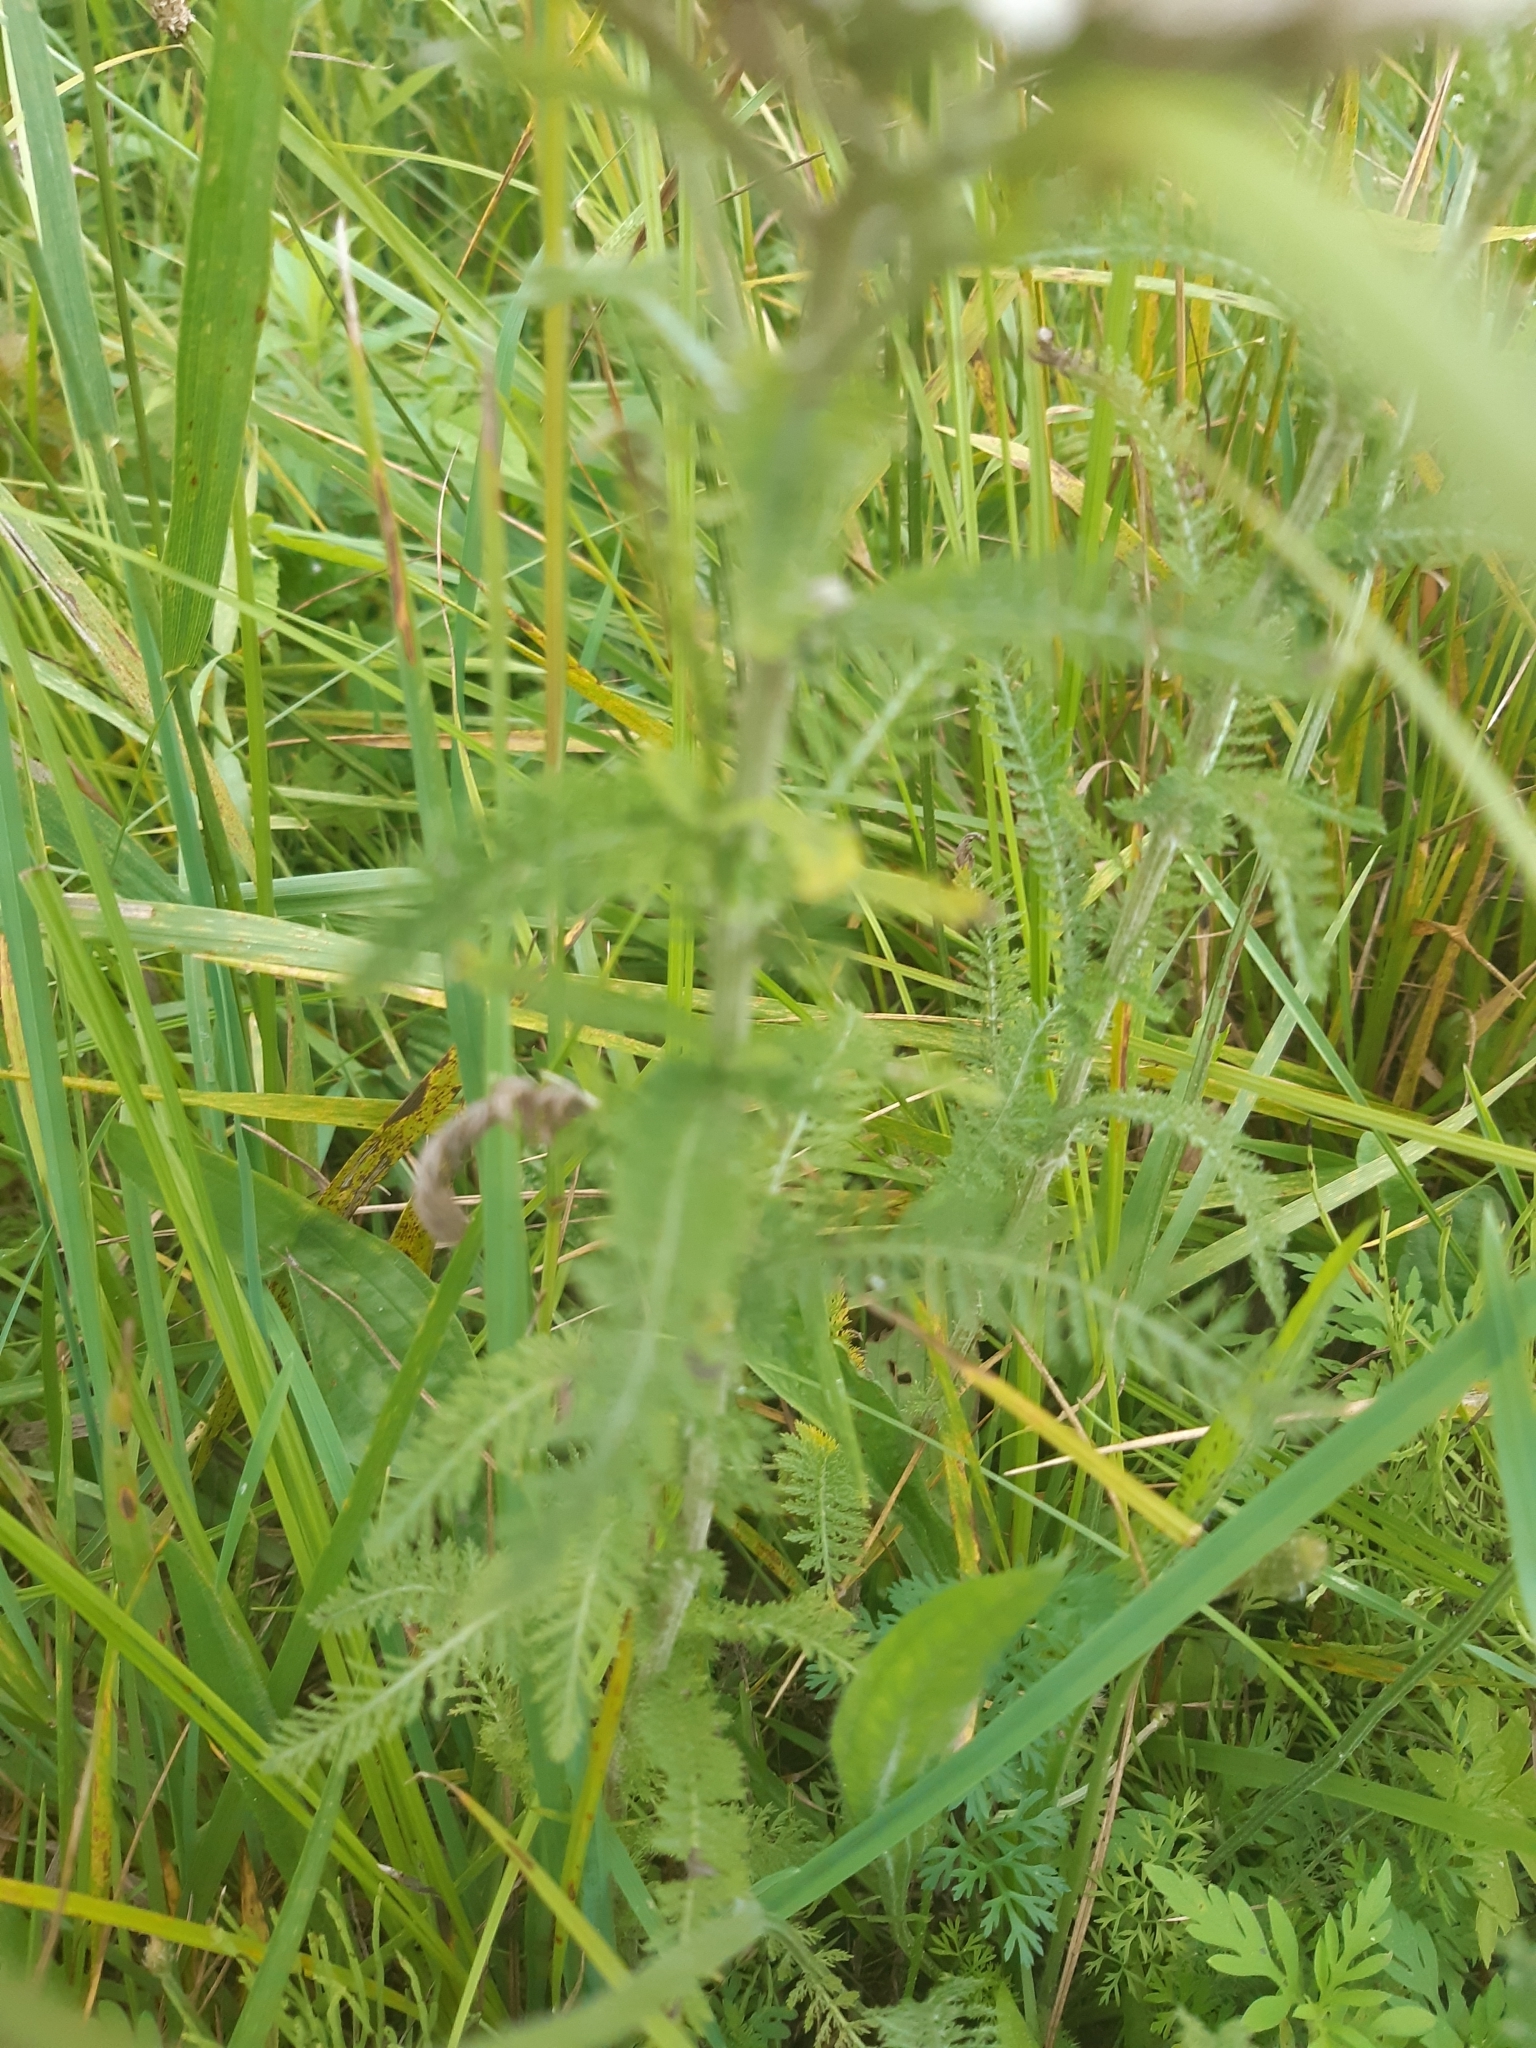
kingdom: Plantae
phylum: Tracheophyta
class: Magnoliopsida
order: Asterales
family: Asteraceae
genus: Achillea
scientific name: Achillea millefolium
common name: Yarrow
